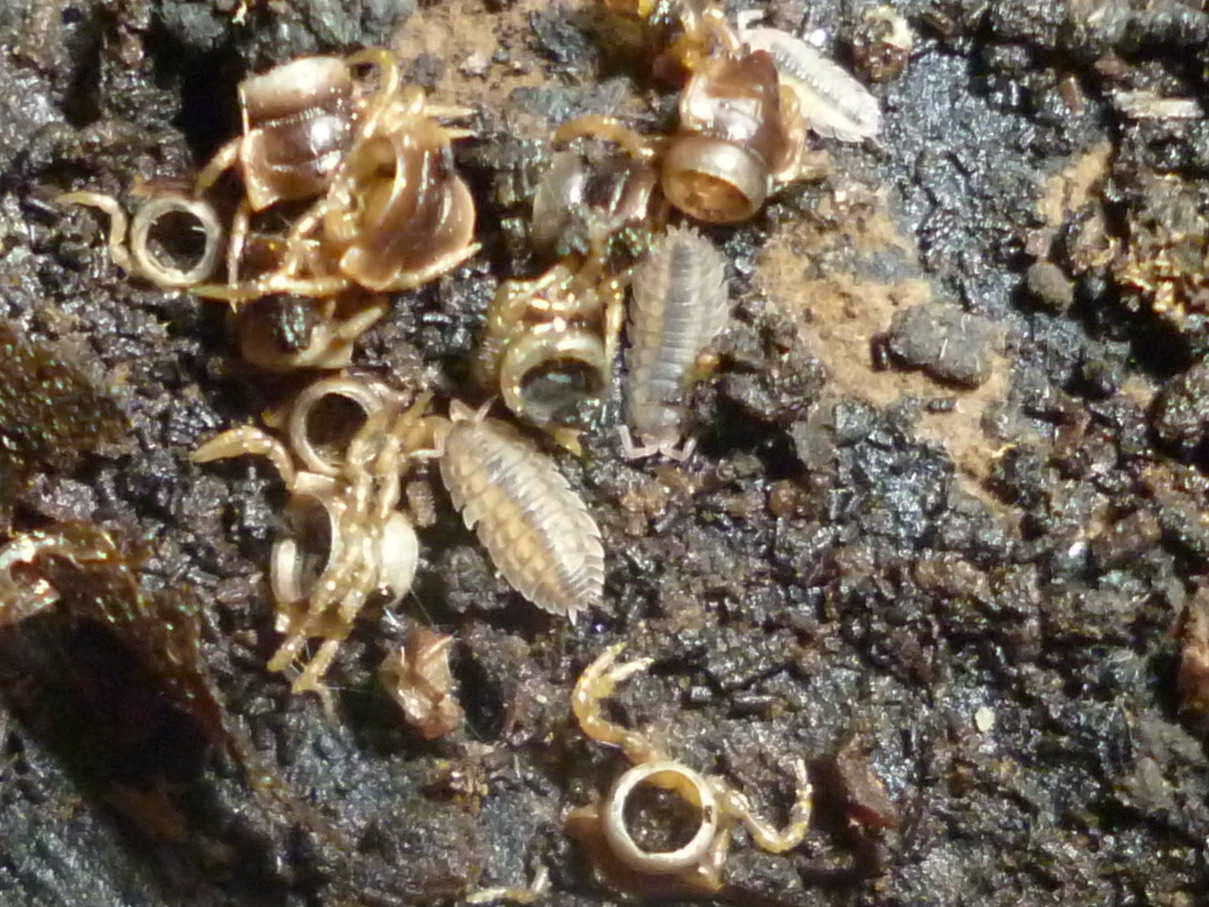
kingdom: Animalia
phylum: Arthropoda
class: Malacostraca
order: Isopoda
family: Oniscidae
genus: Oniscus
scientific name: Oniscus asellus
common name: Common shiny woodlouse
